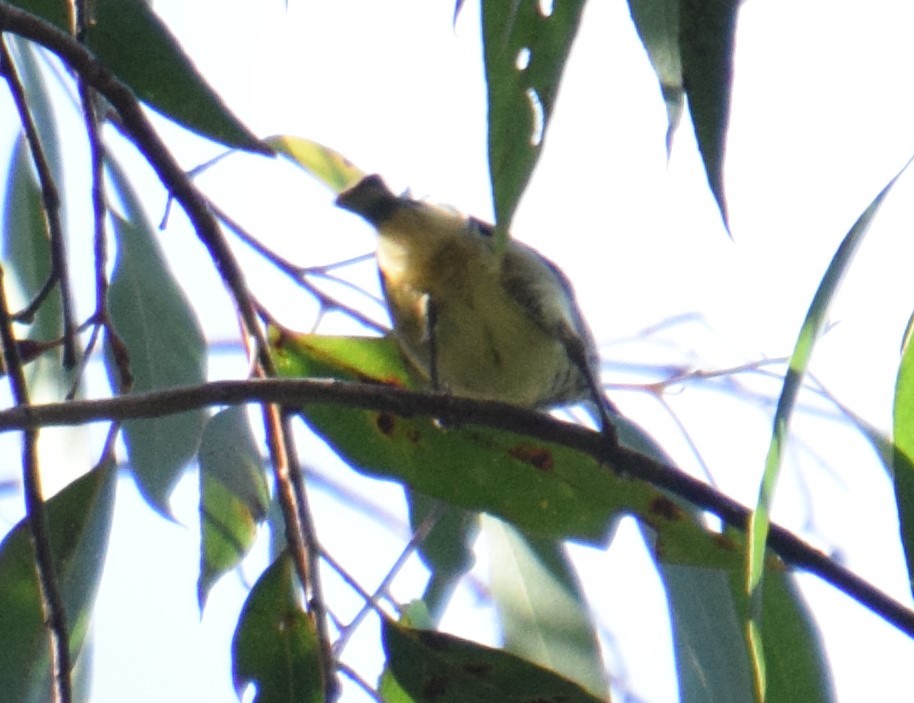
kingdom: Animalia
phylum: Chordata
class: Aves
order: Passeriformes
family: Acanthizidae
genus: Acanthiza
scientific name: Acanthiza lineata
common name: Striated thornbill
